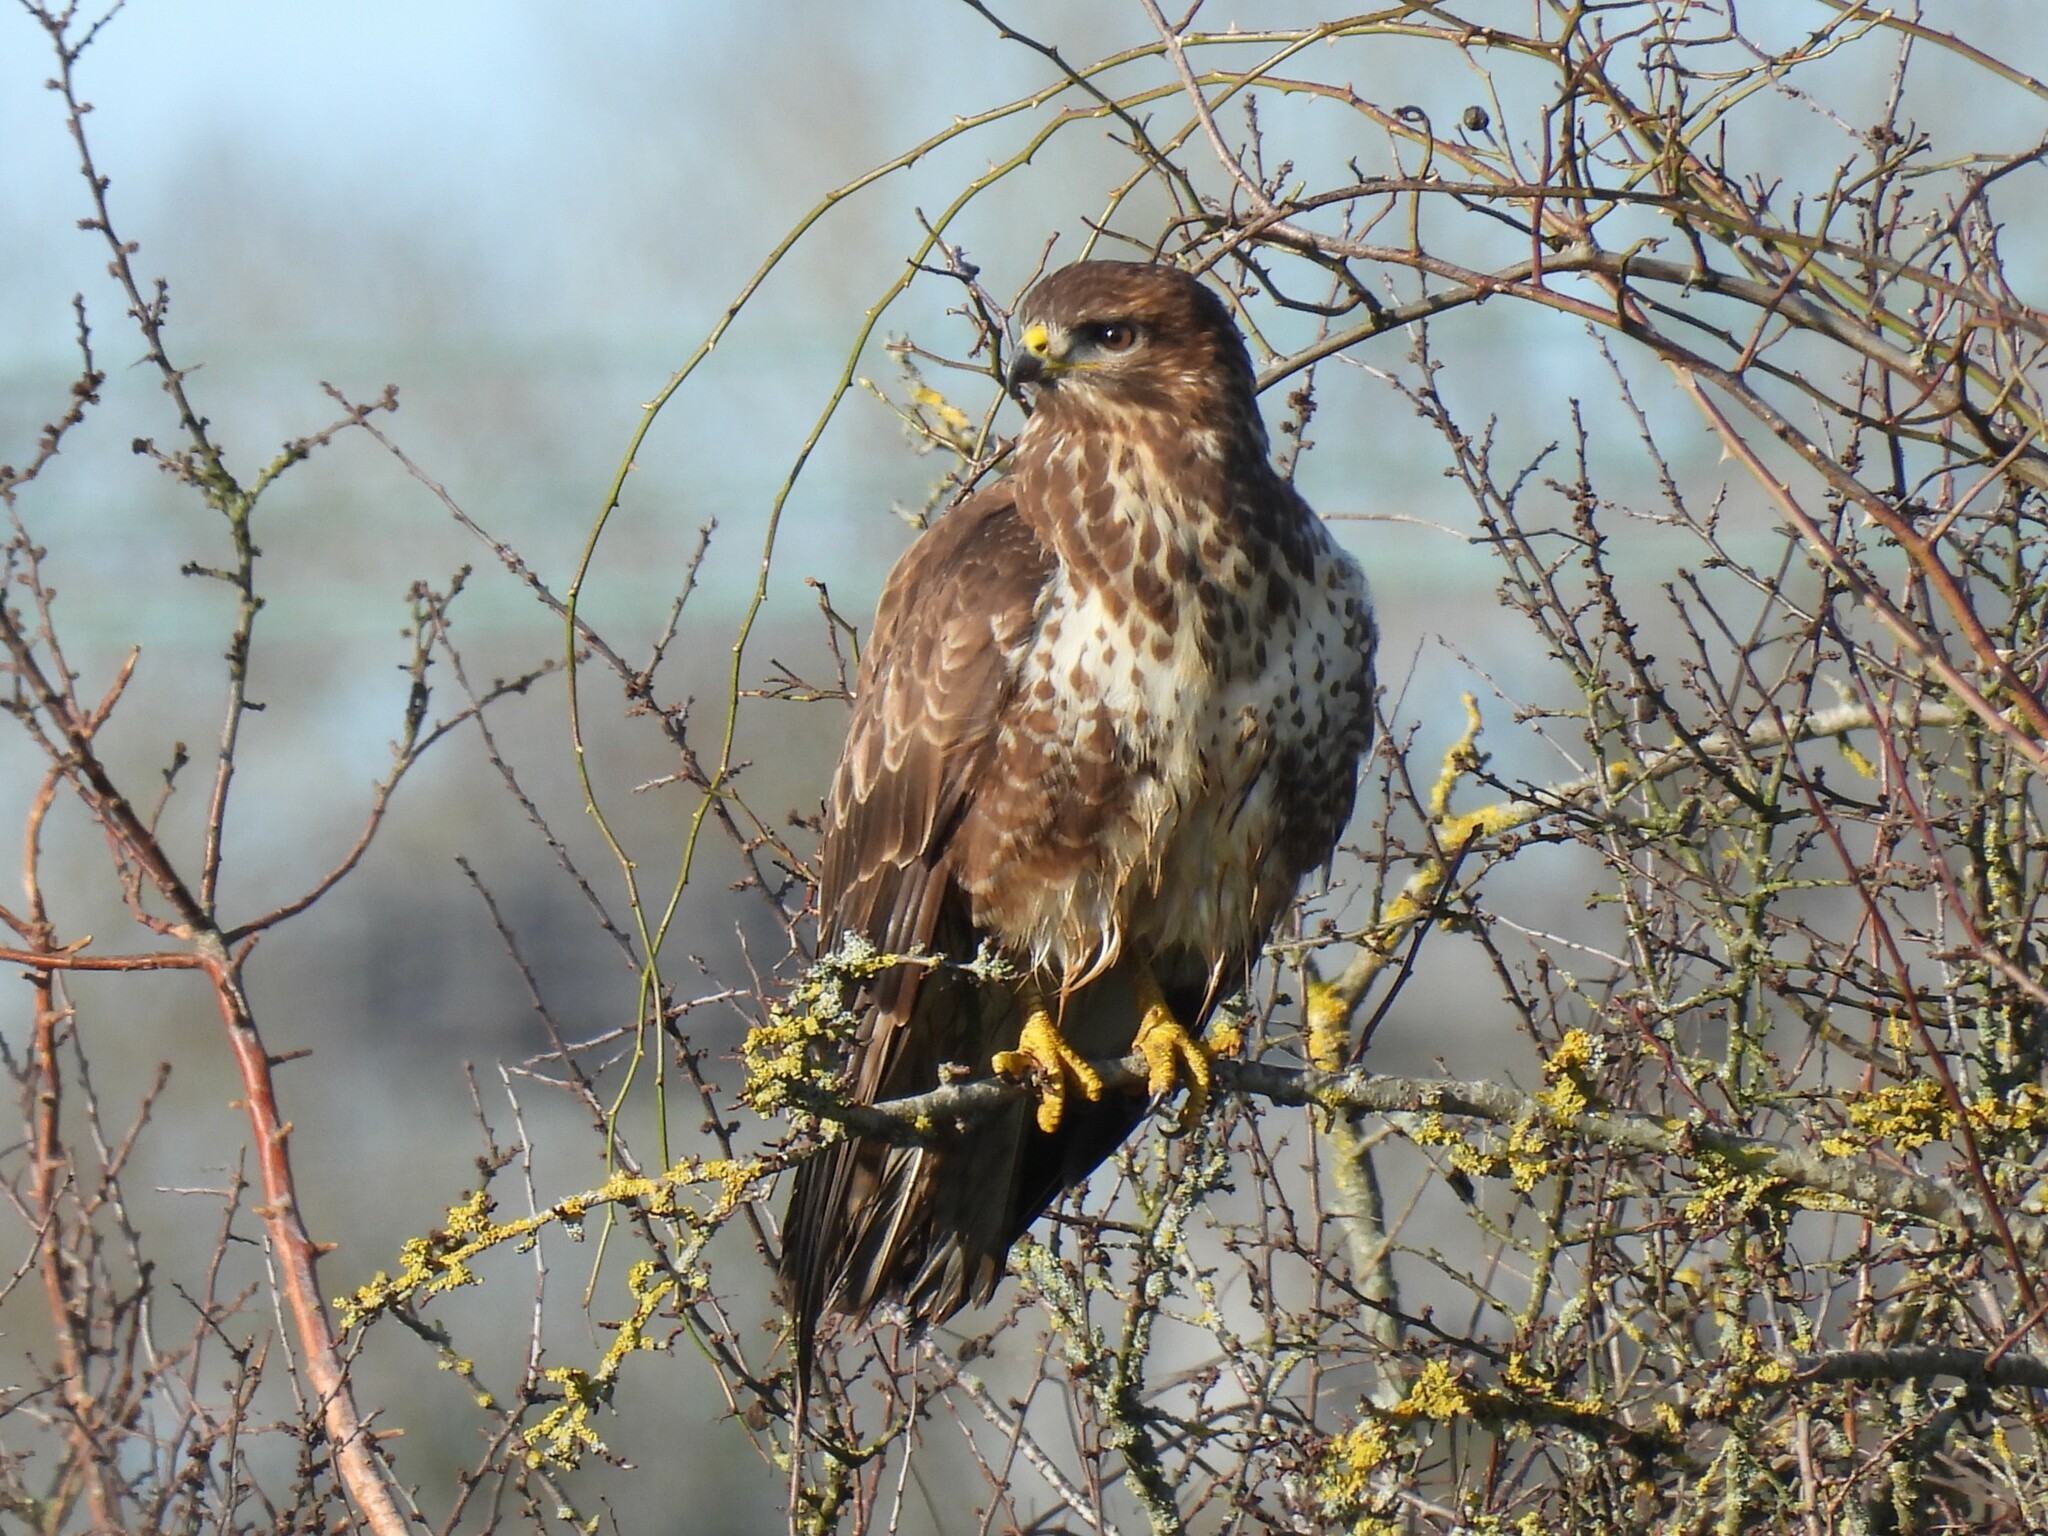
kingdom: Animalia
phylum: Chordata
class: Aves
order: Accipitriformes
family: Accipitridae
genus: Buteo
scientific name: Buteo buteo
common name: Common buzzard
